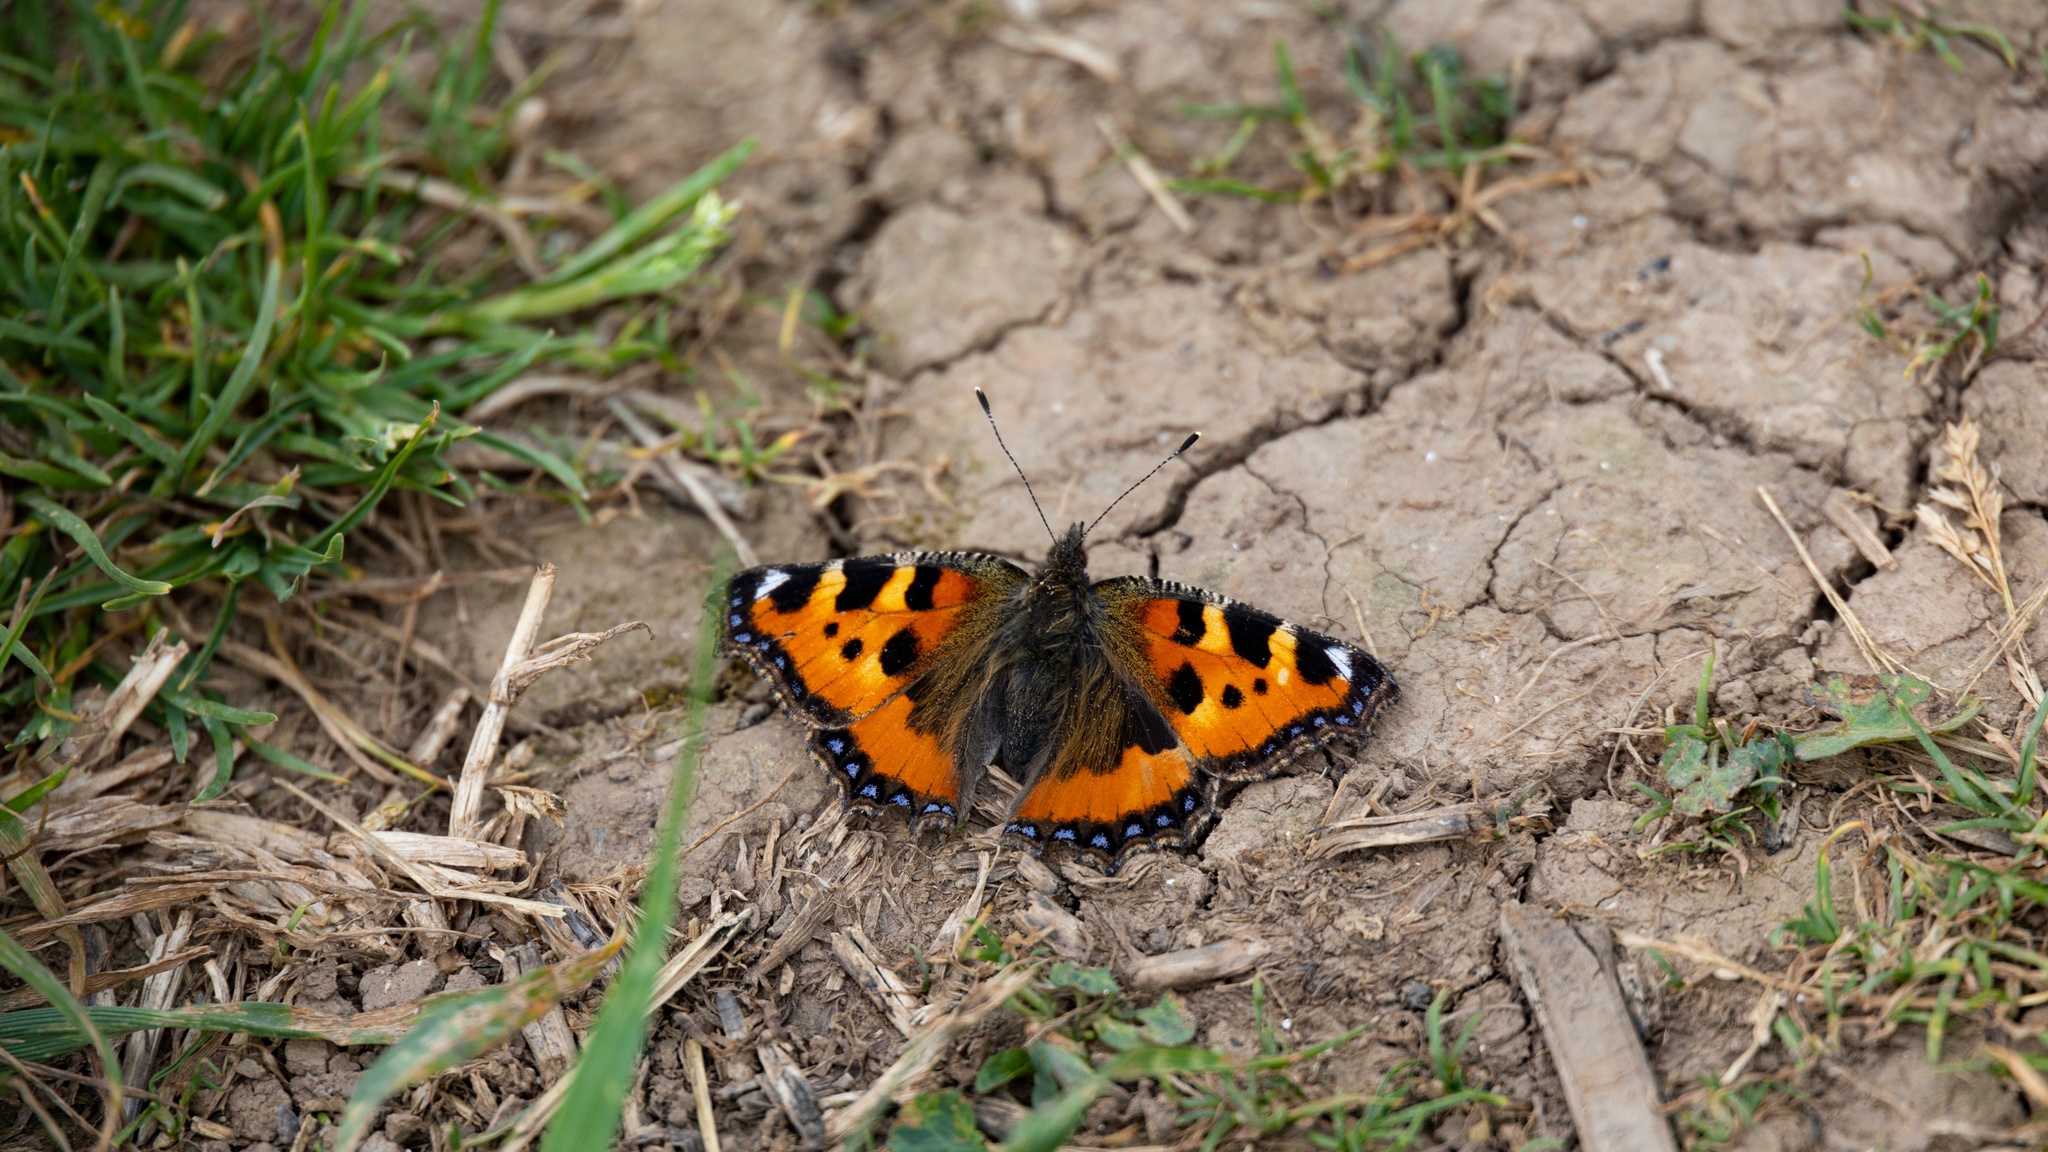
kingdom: Animalia
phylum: Arthropoda
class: Insecta
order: Lepidoptera
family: Nymphalidae
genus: Aglais
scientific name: Aglais urticae
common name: Small tortoiseshell
